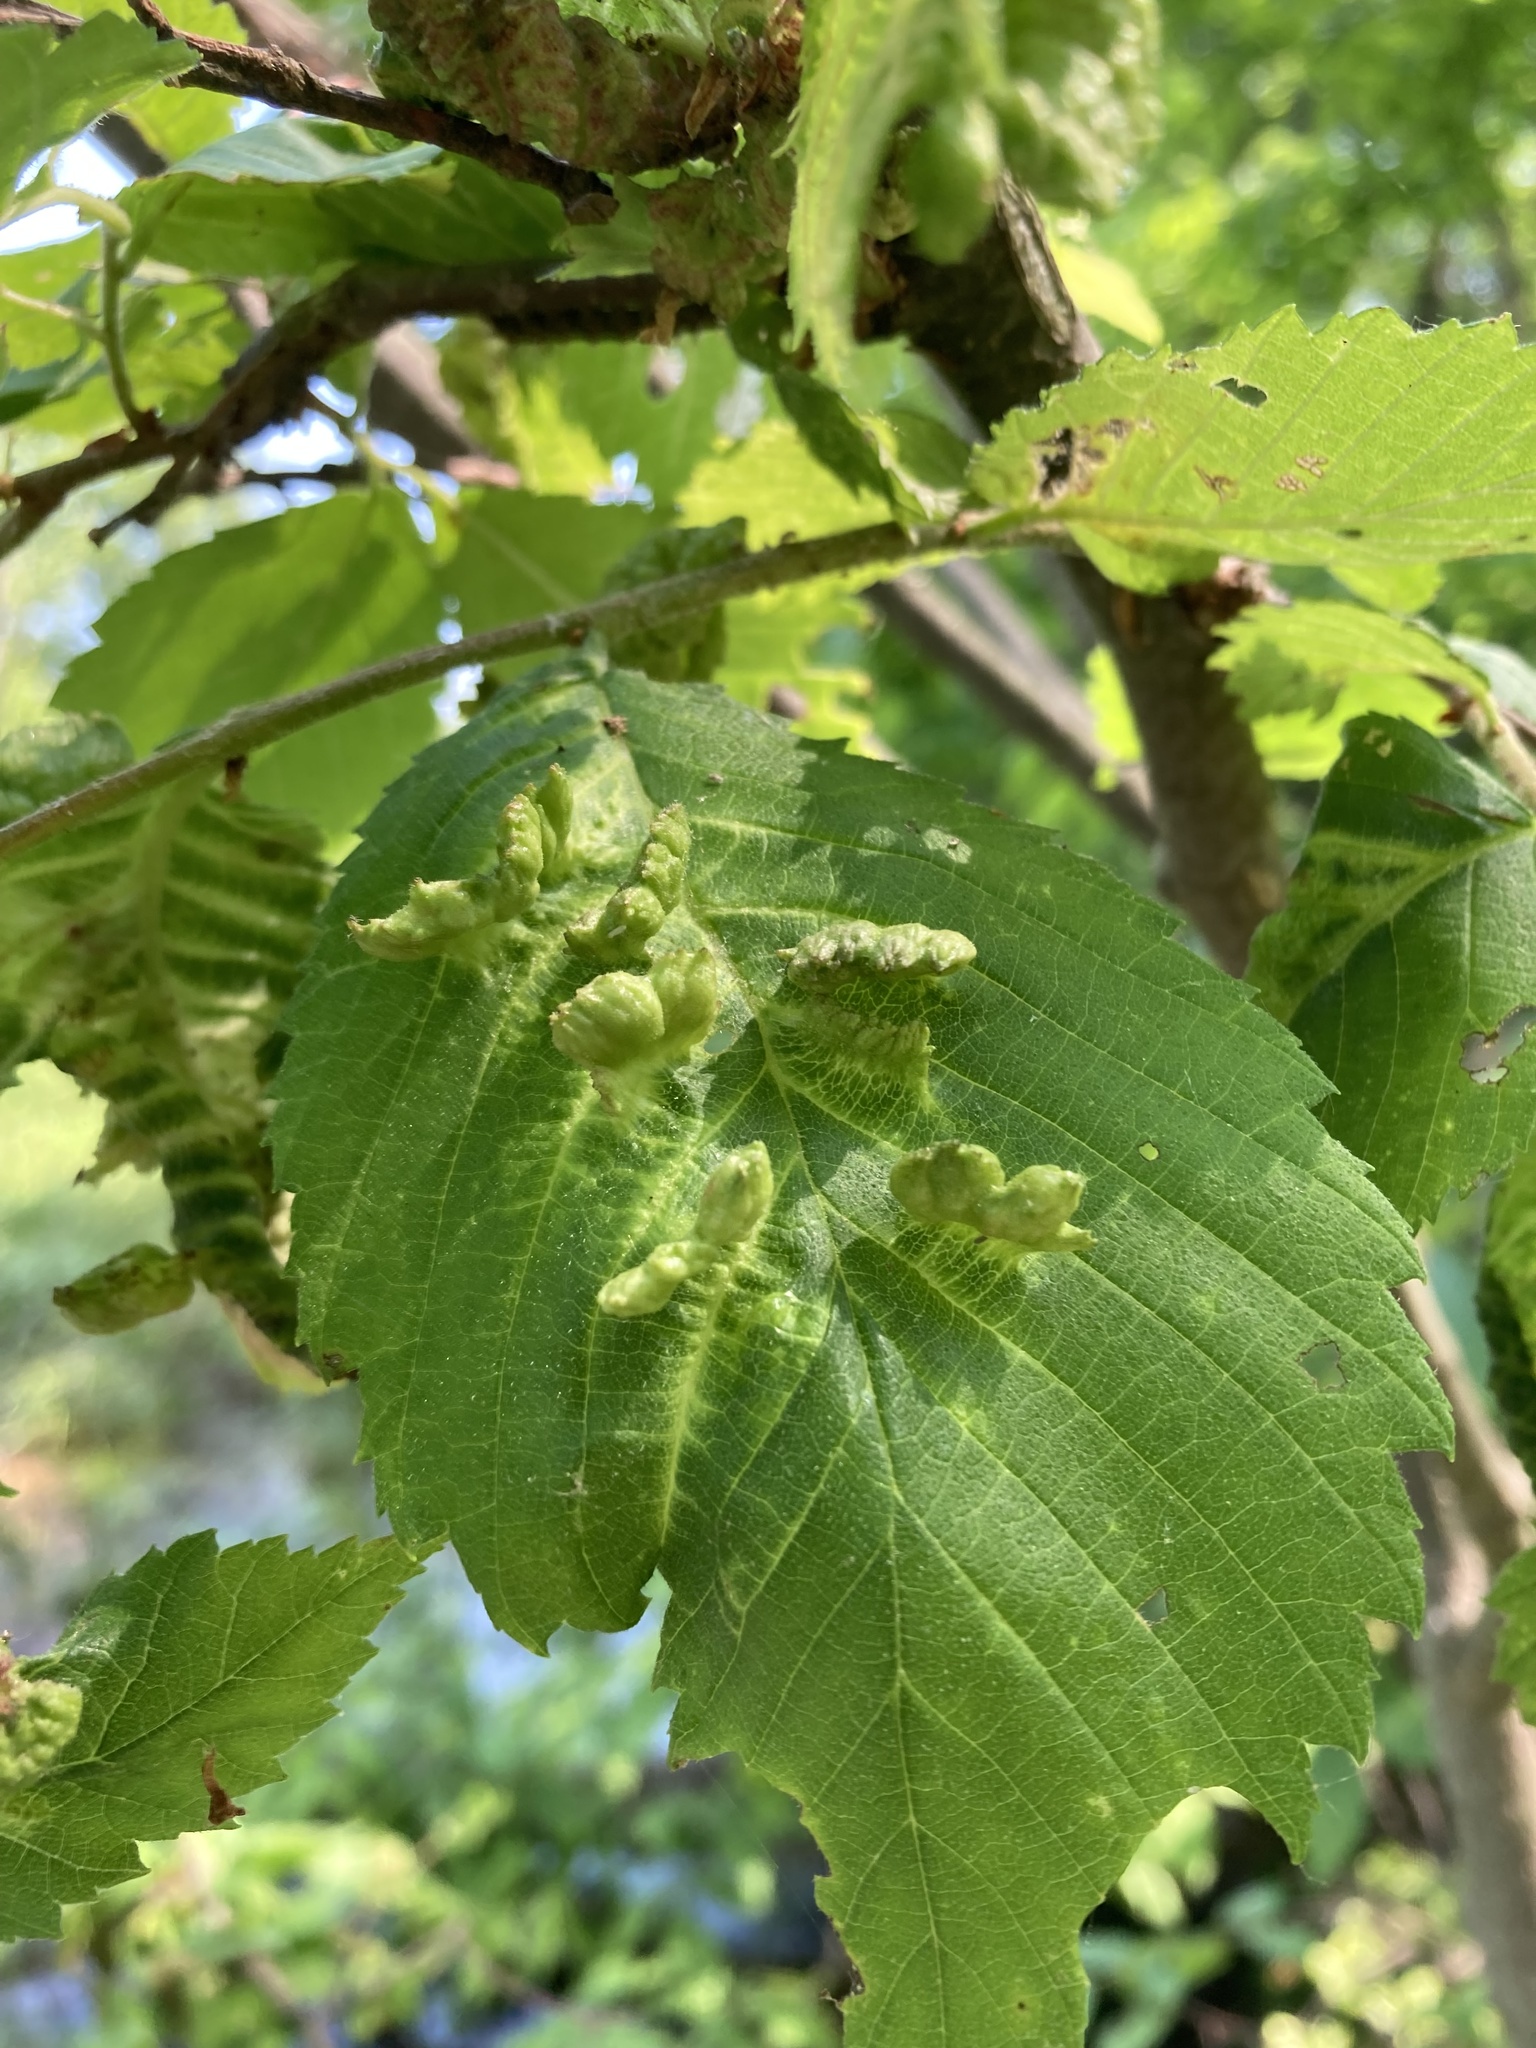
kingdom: Animalia
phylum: Arthropoda
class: Insecta
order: Hemiptera
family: Aphididae
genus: Colopha
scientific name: Colopha ulmicola
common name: Elm cockscombgall aphid
